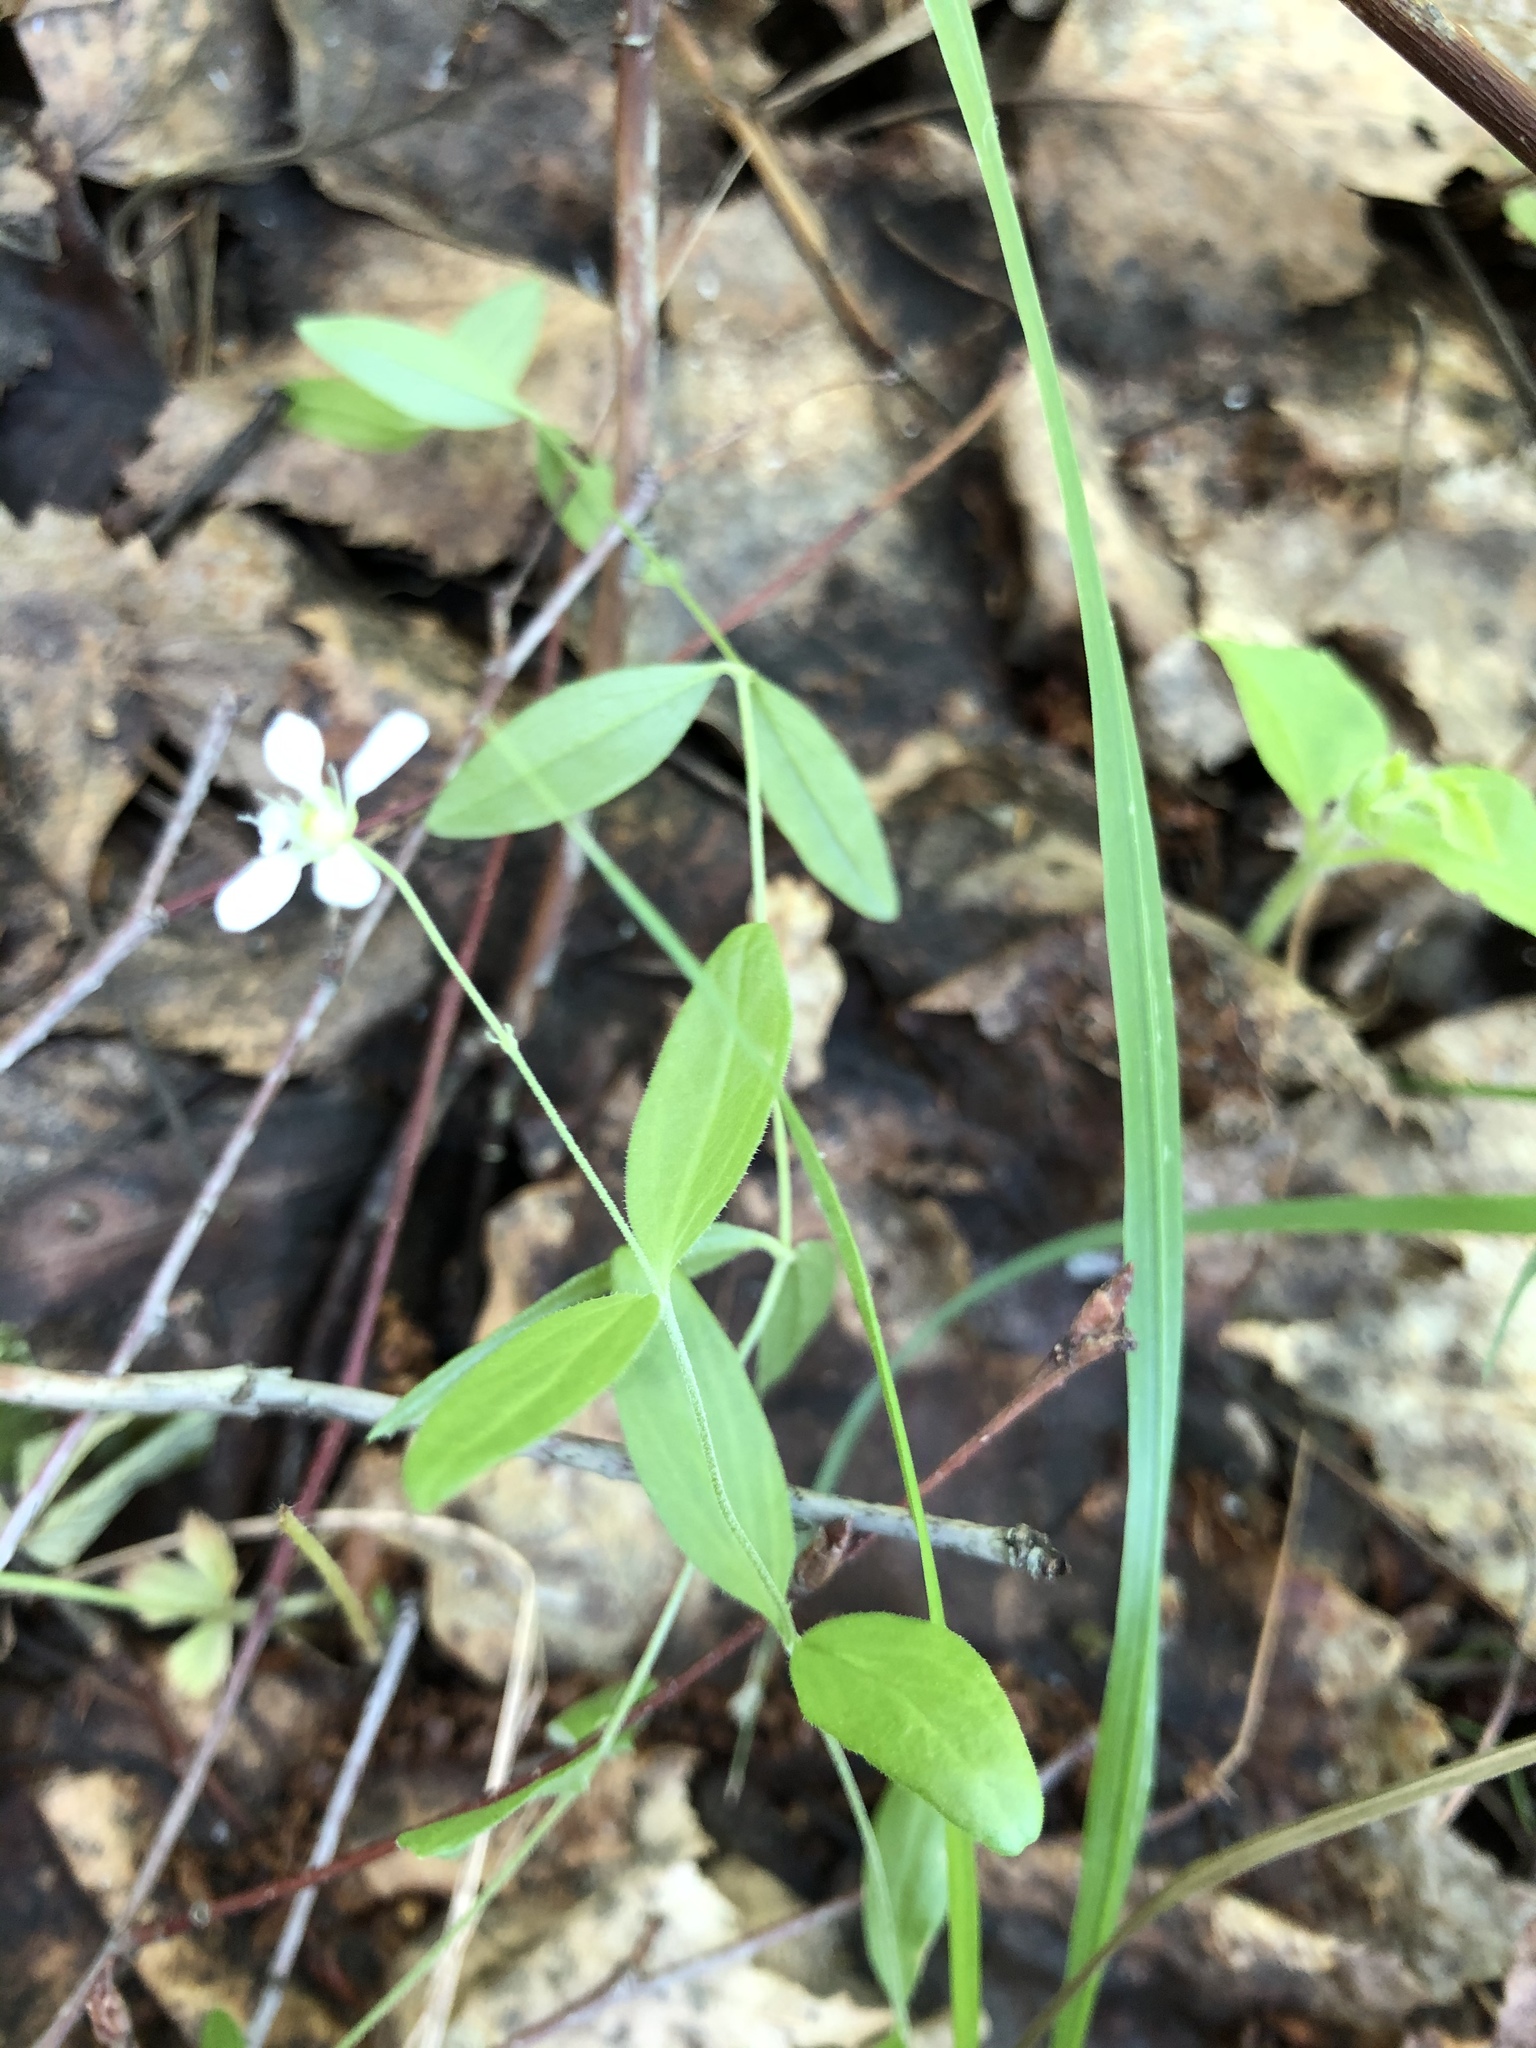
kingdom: Plantae
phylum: Tracheophyta
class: Magnoliopsida
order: Caryophyllales
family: Caryophyllaceae
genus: Moehringia
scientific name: Moehringia lateriflora
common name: Blunt-leaved sandwort
